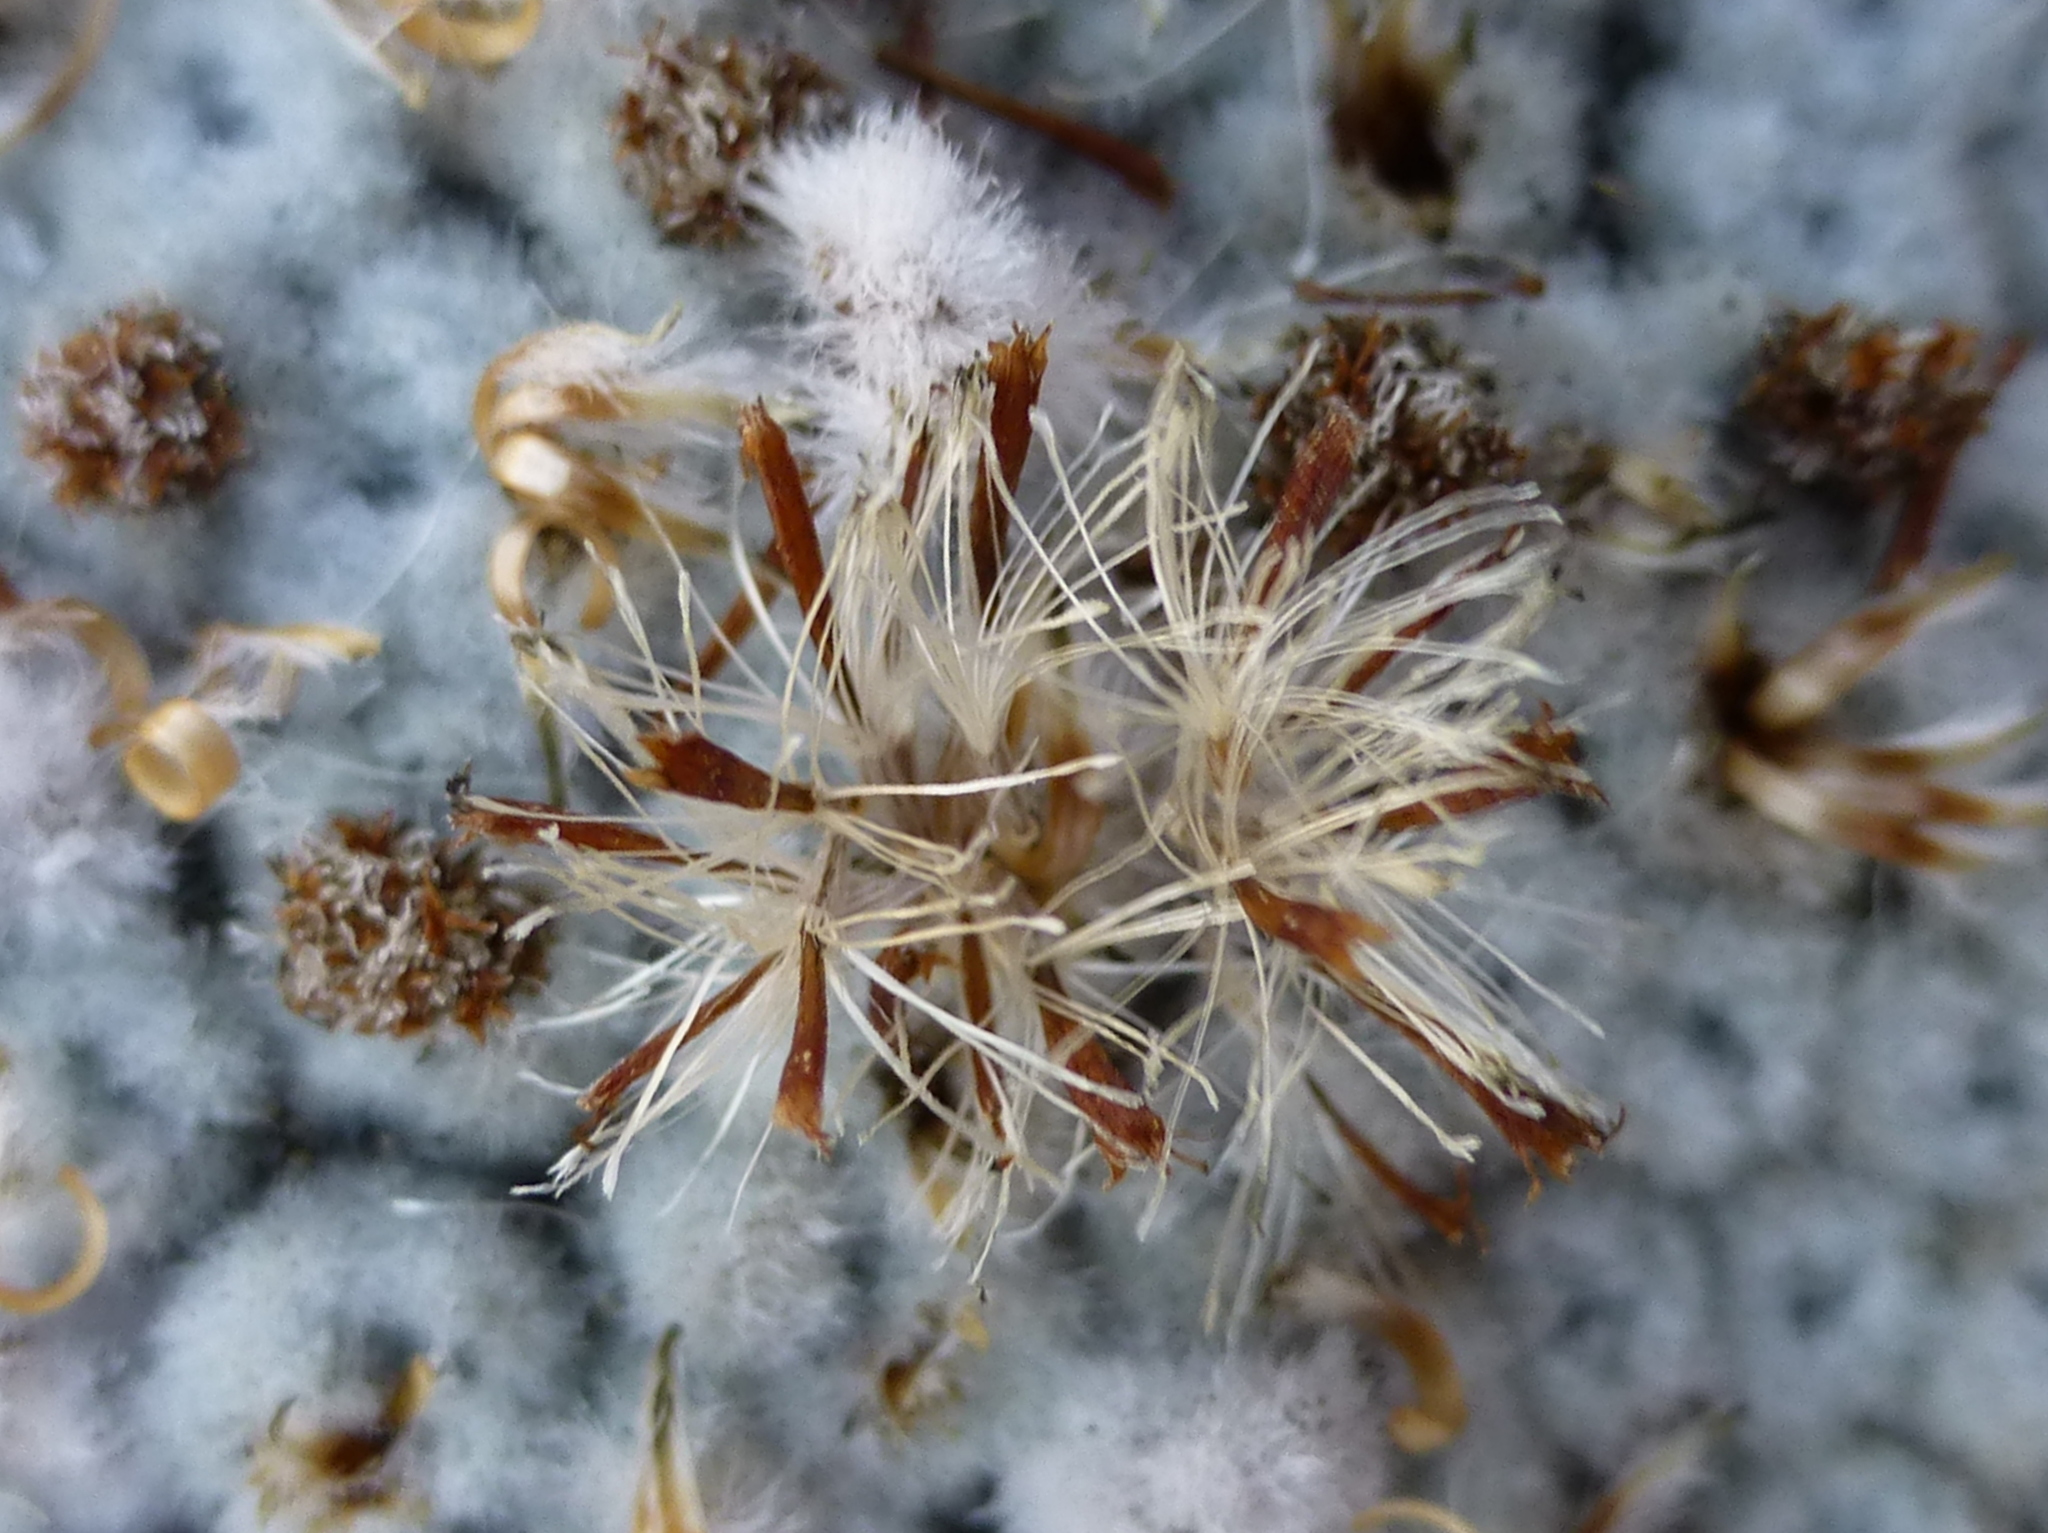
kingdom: Plantae
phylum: Tracheophyta
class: Magnoliopsida
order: Asterales
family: Asteraceae
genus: Raoulia
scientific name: Raoulia eximia
